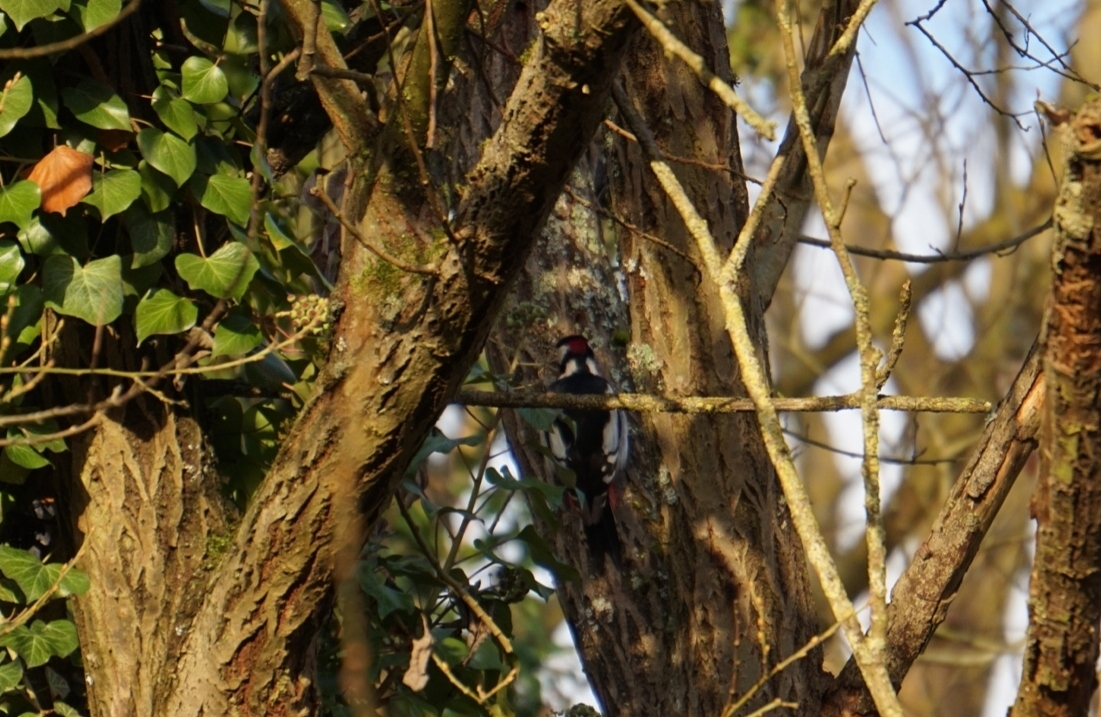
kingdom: Animalia
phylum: Chordata
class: Aves
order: Piciformes
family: Picidae
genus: Dendrocopos
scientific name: Dendrocopos major
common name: Great spotted woodpecker
